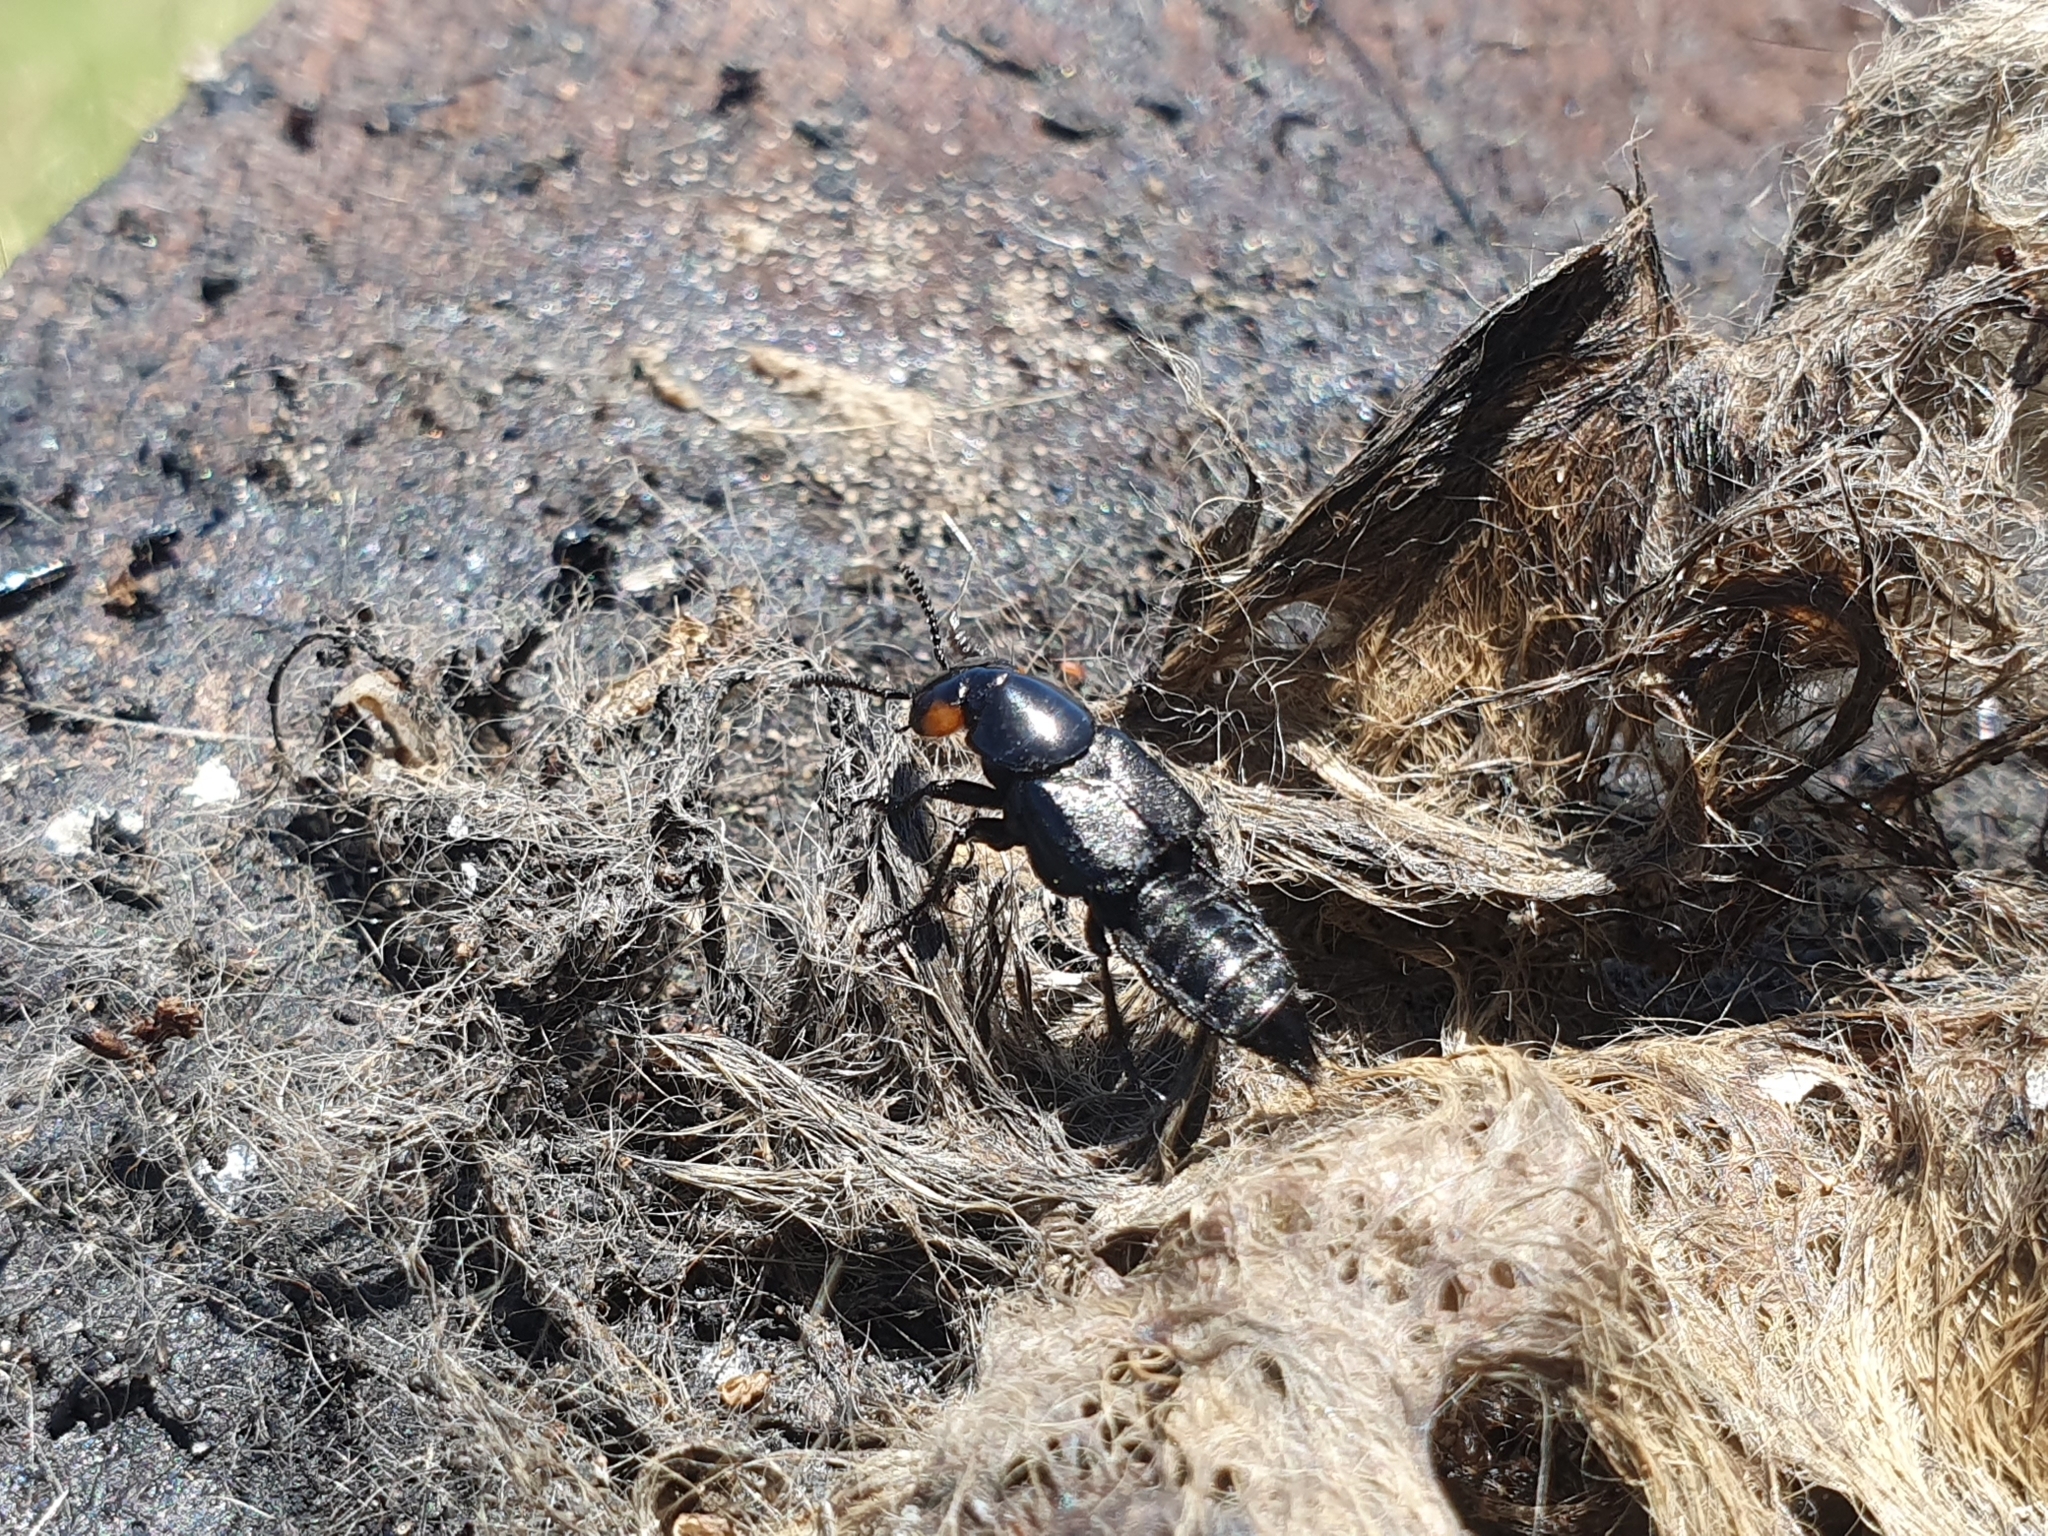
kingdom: Animalia
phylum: Arthropoda
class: Insecta
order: Coleoptera
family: Staphylinidae
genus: Creophilus
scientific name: Creophilus oculatus
